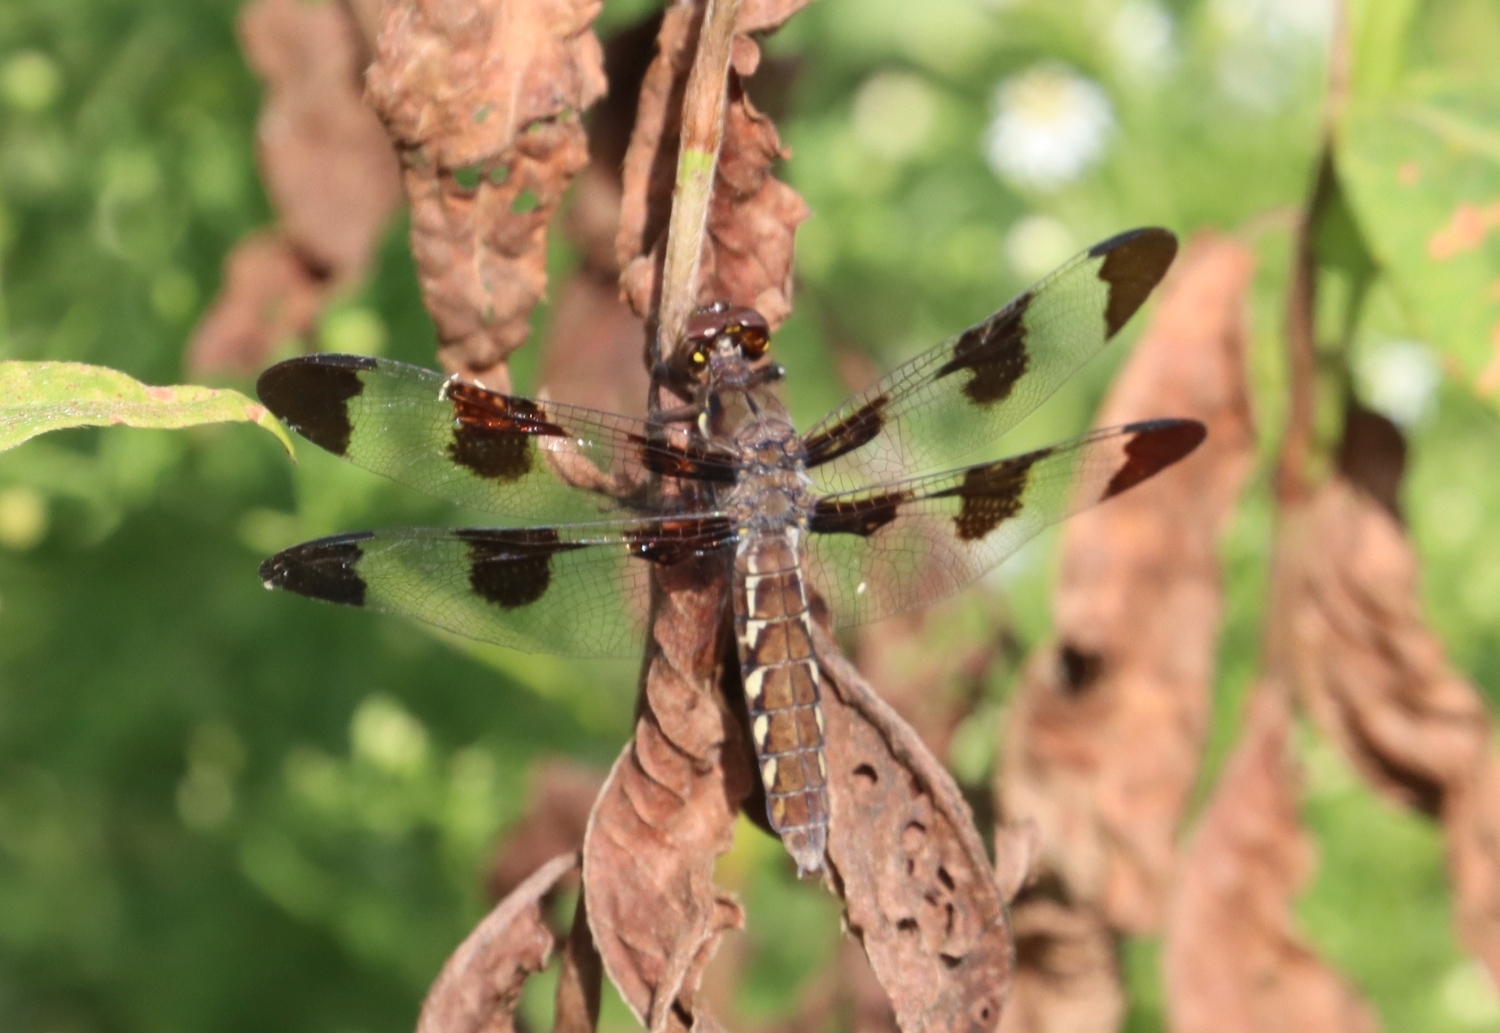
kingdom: Animalia
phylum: Arthropoda
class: Insecta
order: Odonata
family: Libellulidae
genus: Plathemis
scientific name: Plathemis lydia
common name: Common whitetail
